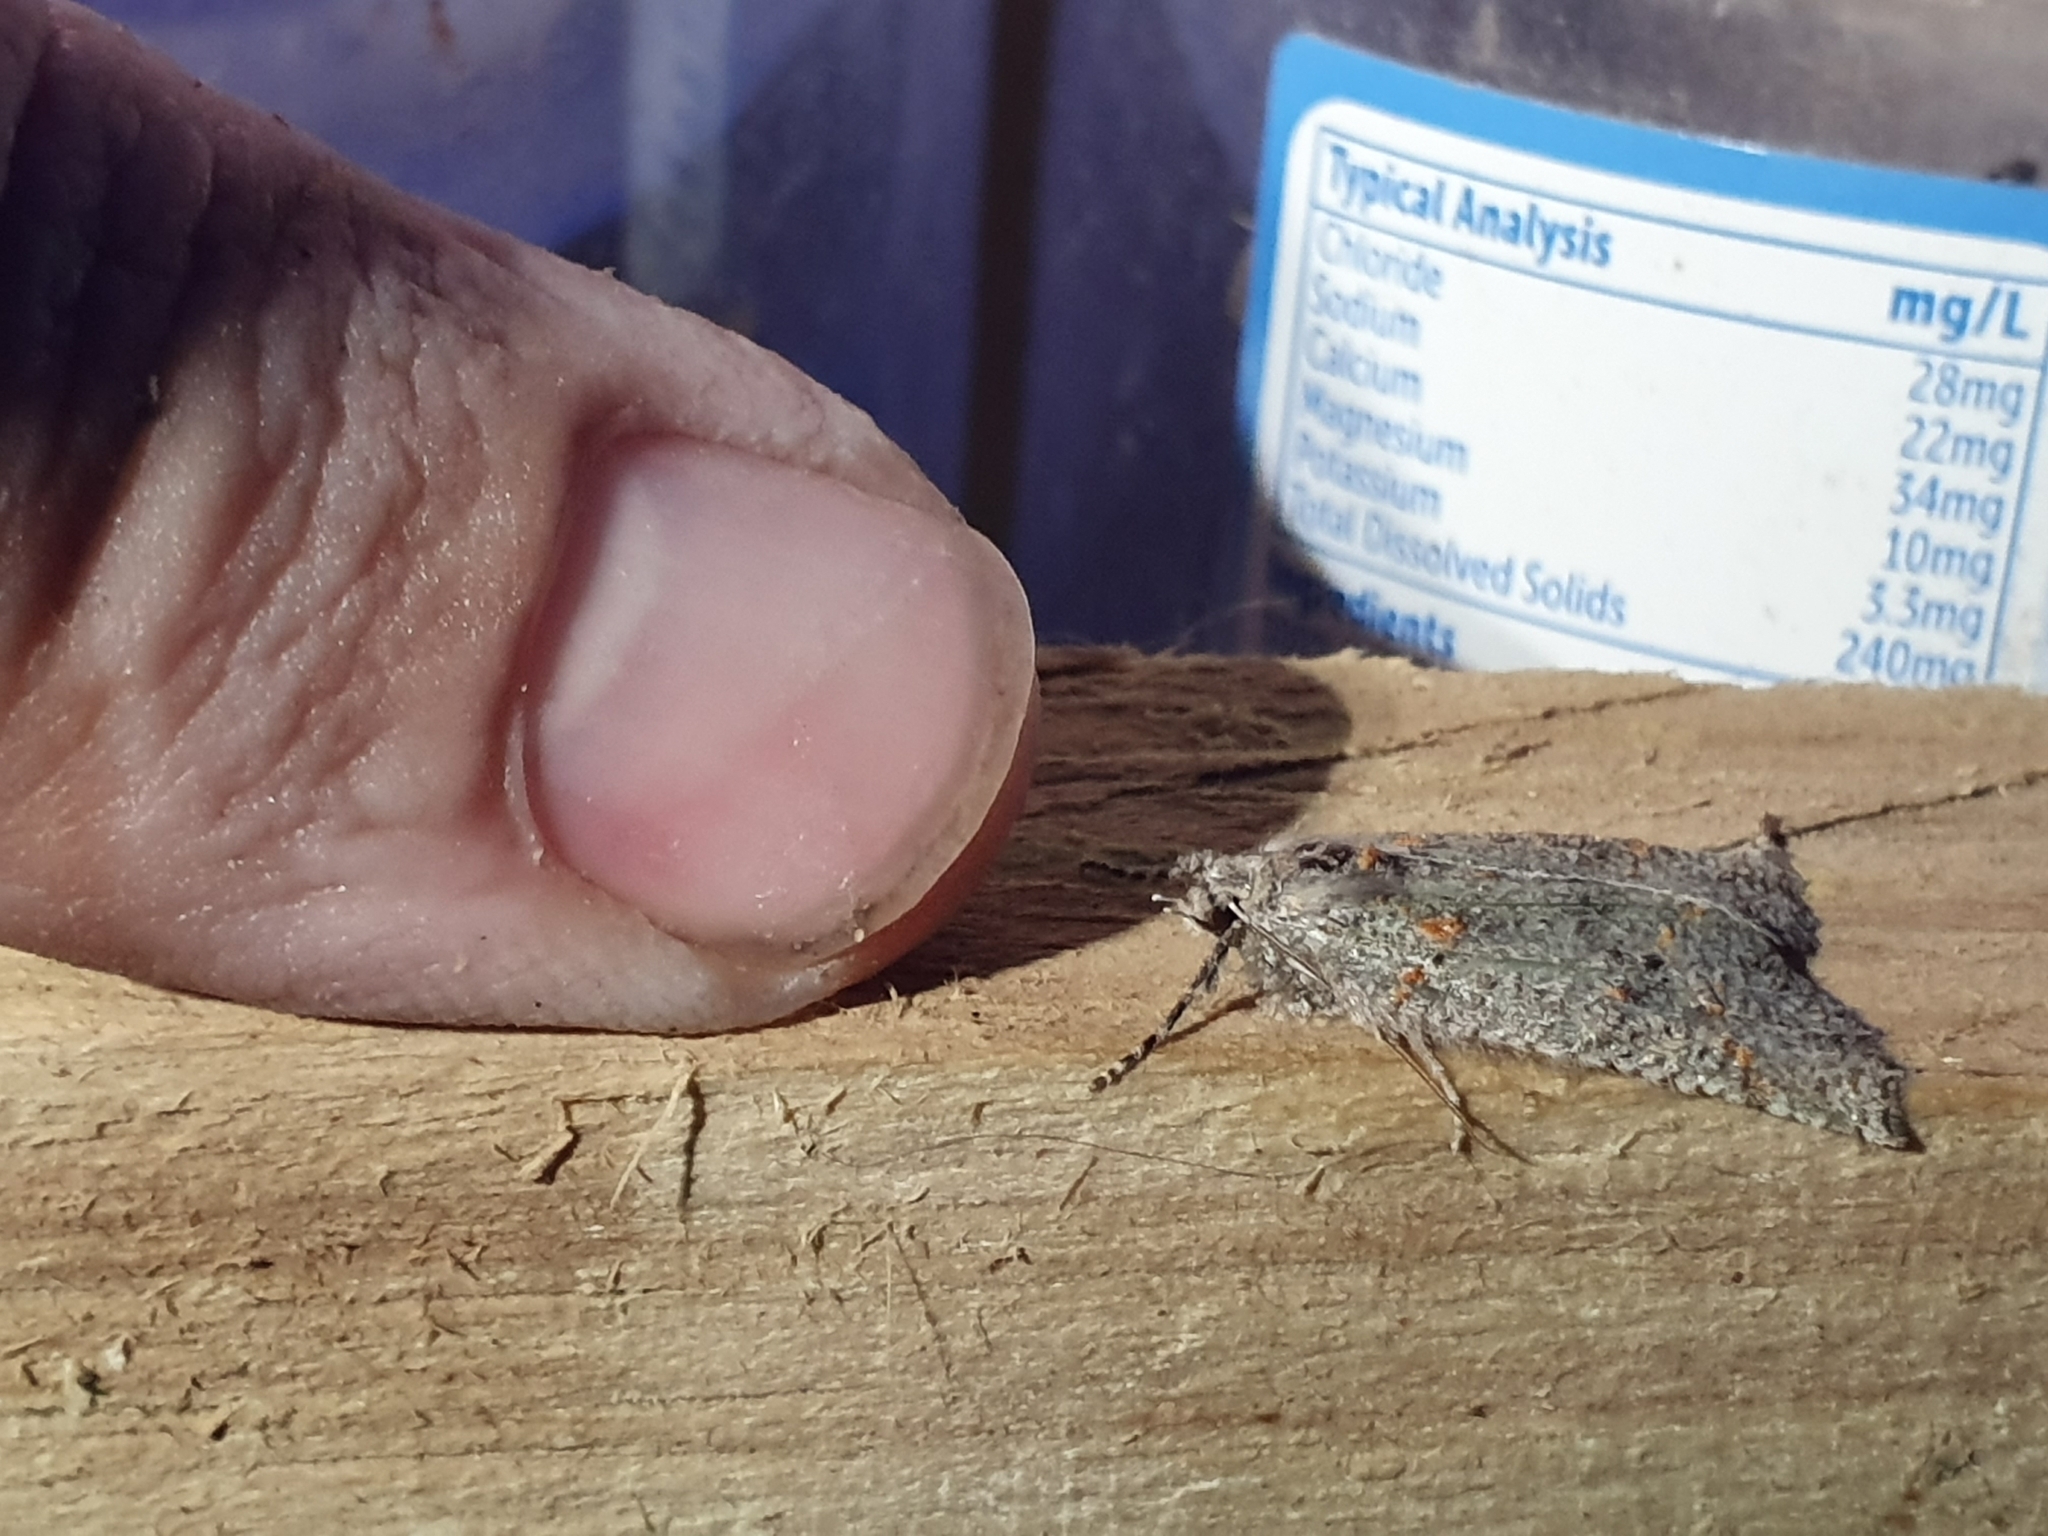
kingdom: Animalia
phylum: Arthropoda
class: Insecta
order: Lepidoptera
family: Geometridae
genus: Declana
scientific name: Declana floccosa
